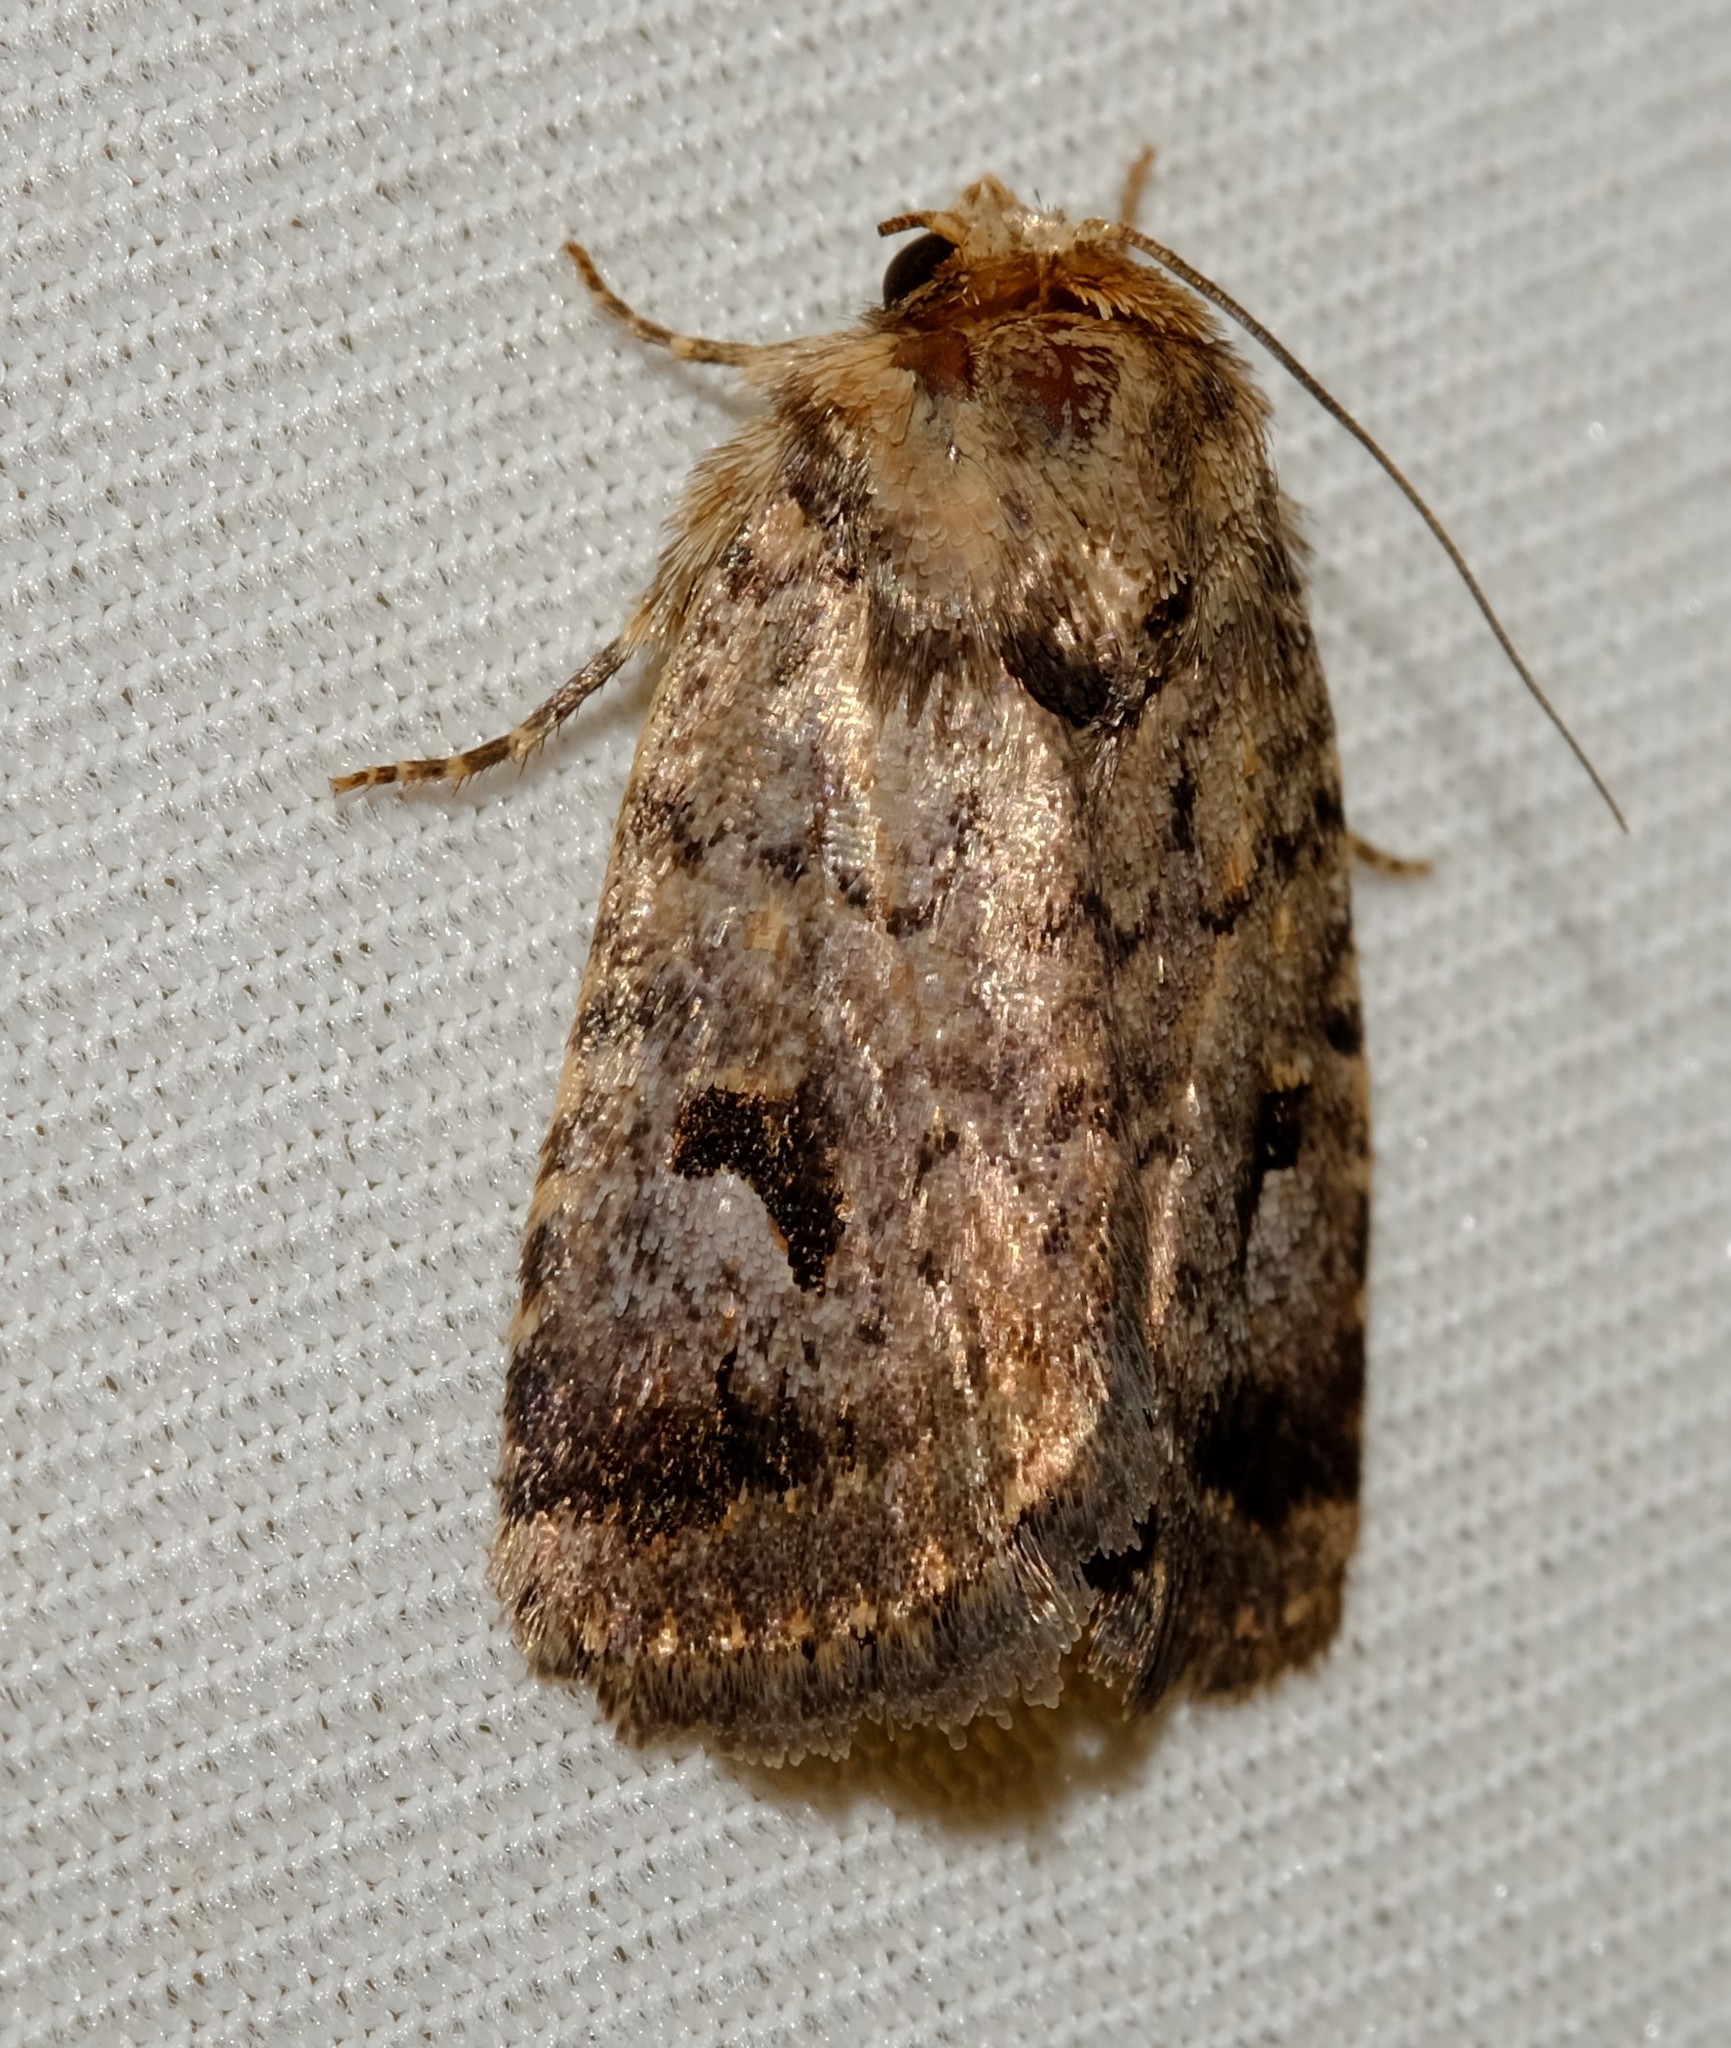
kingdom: Animalia
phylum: Arthropoda
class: Insecta
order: Lepidoptera
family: Noctuidae
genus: Thoracolopha
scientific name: Thoracolopha verecunda
